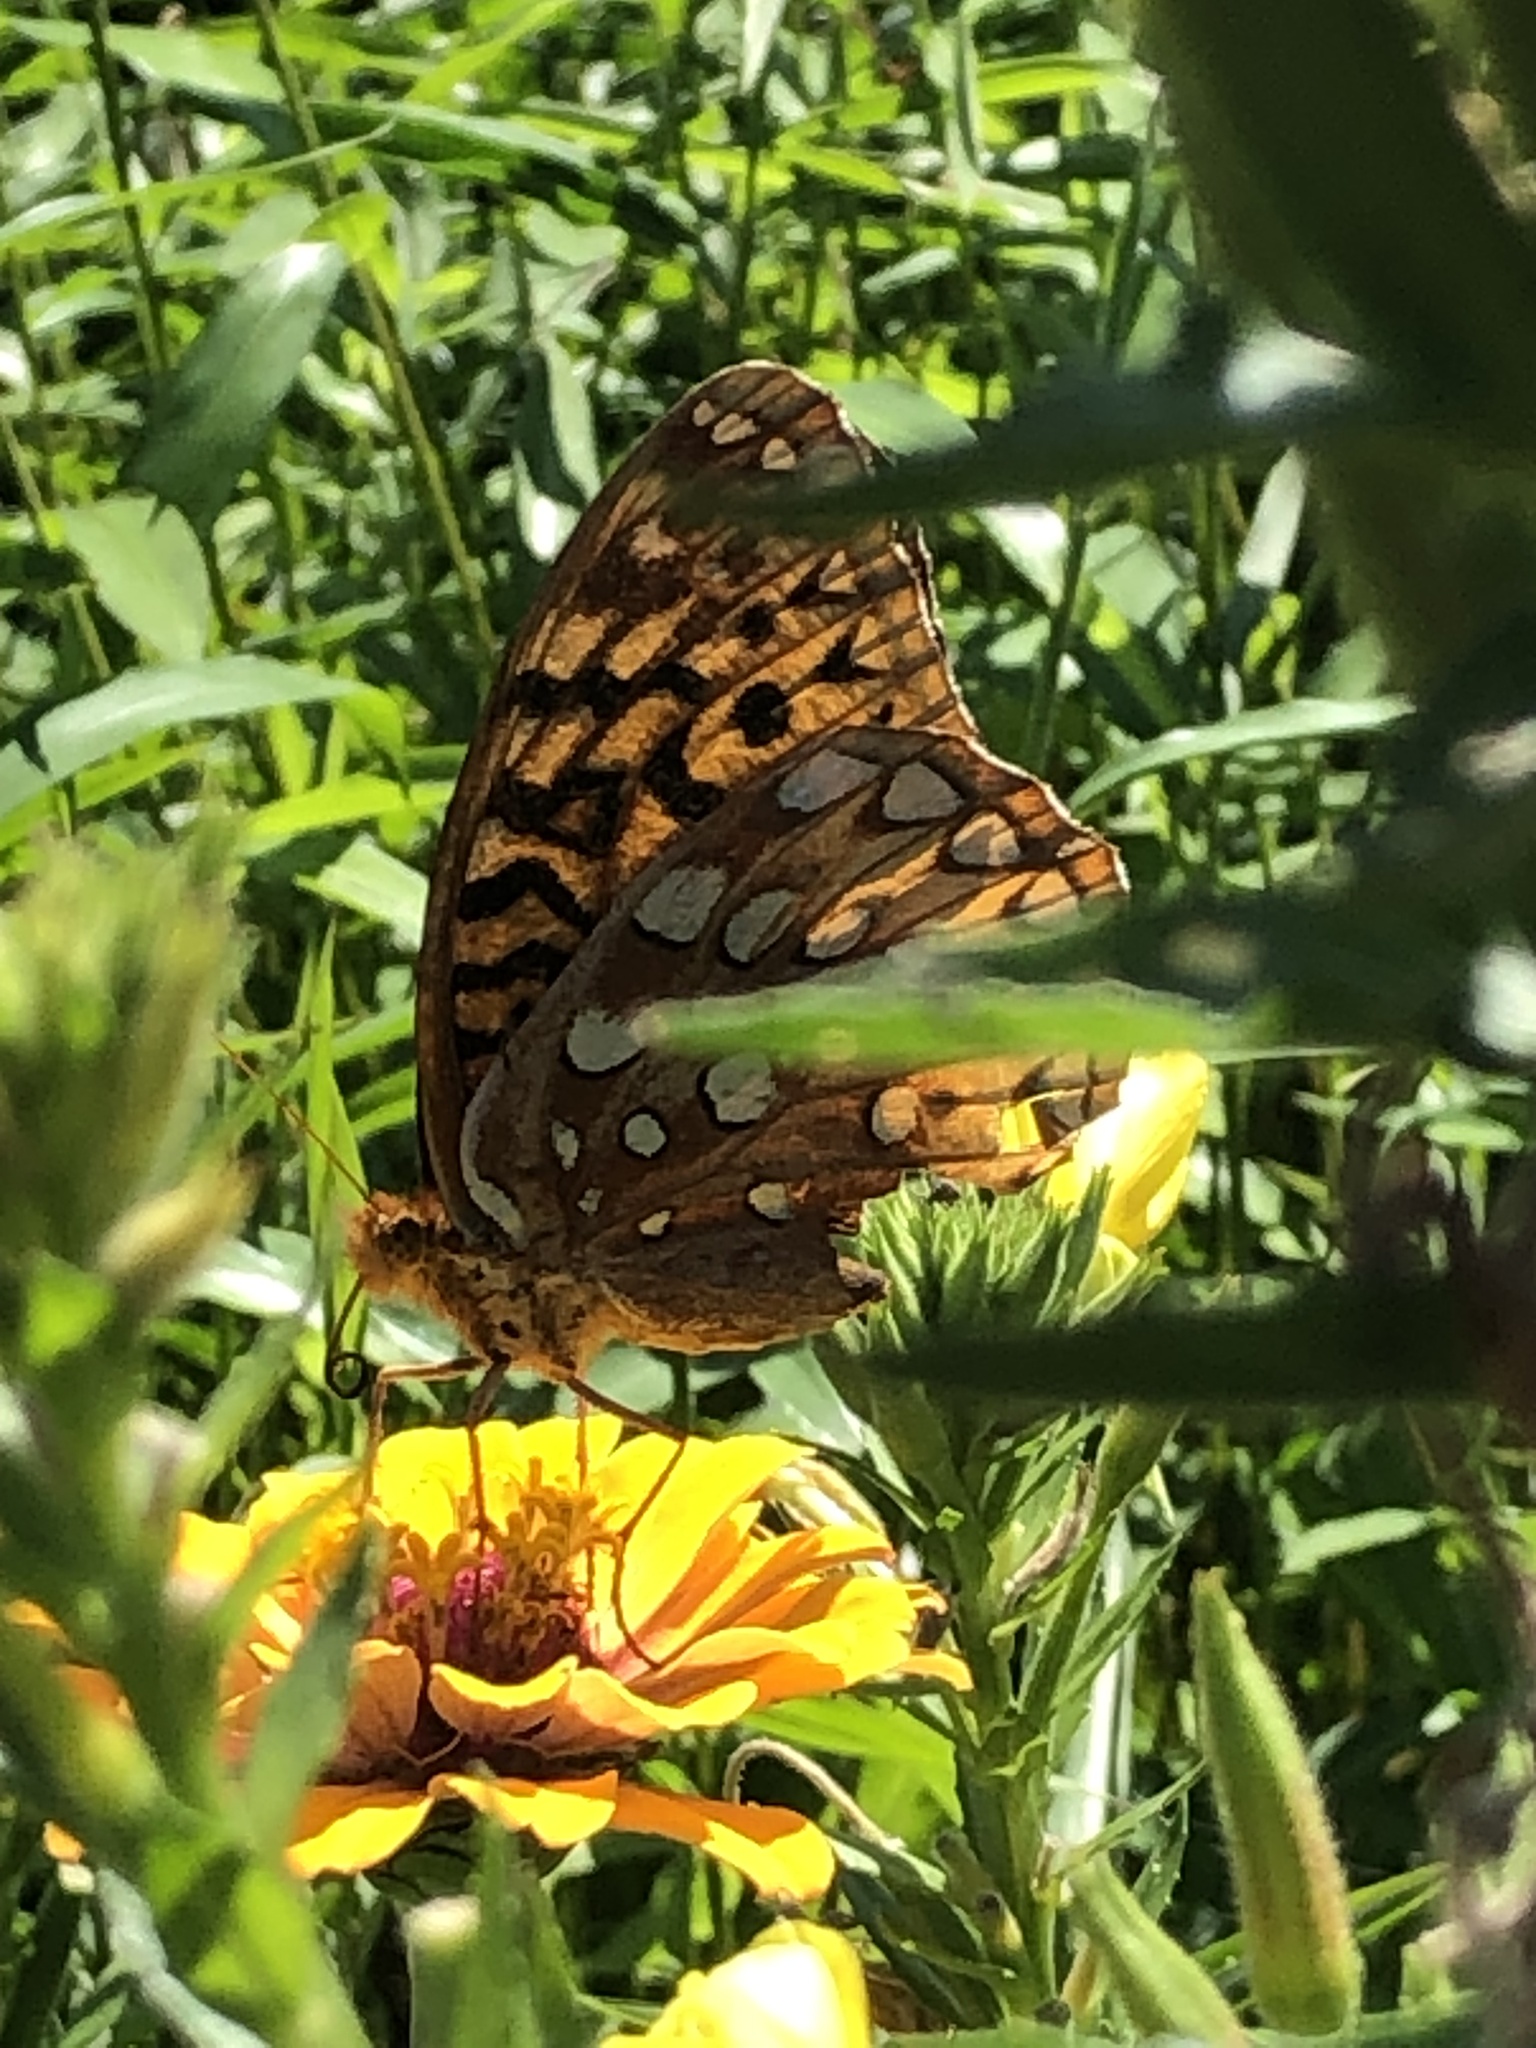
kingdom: Animalia
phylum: Arthropoda
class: Insecta
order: Lepidoptera
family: Nymphalidae
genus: Speyeria
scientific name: Speyeria cybele
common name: Great spangled fritillary
